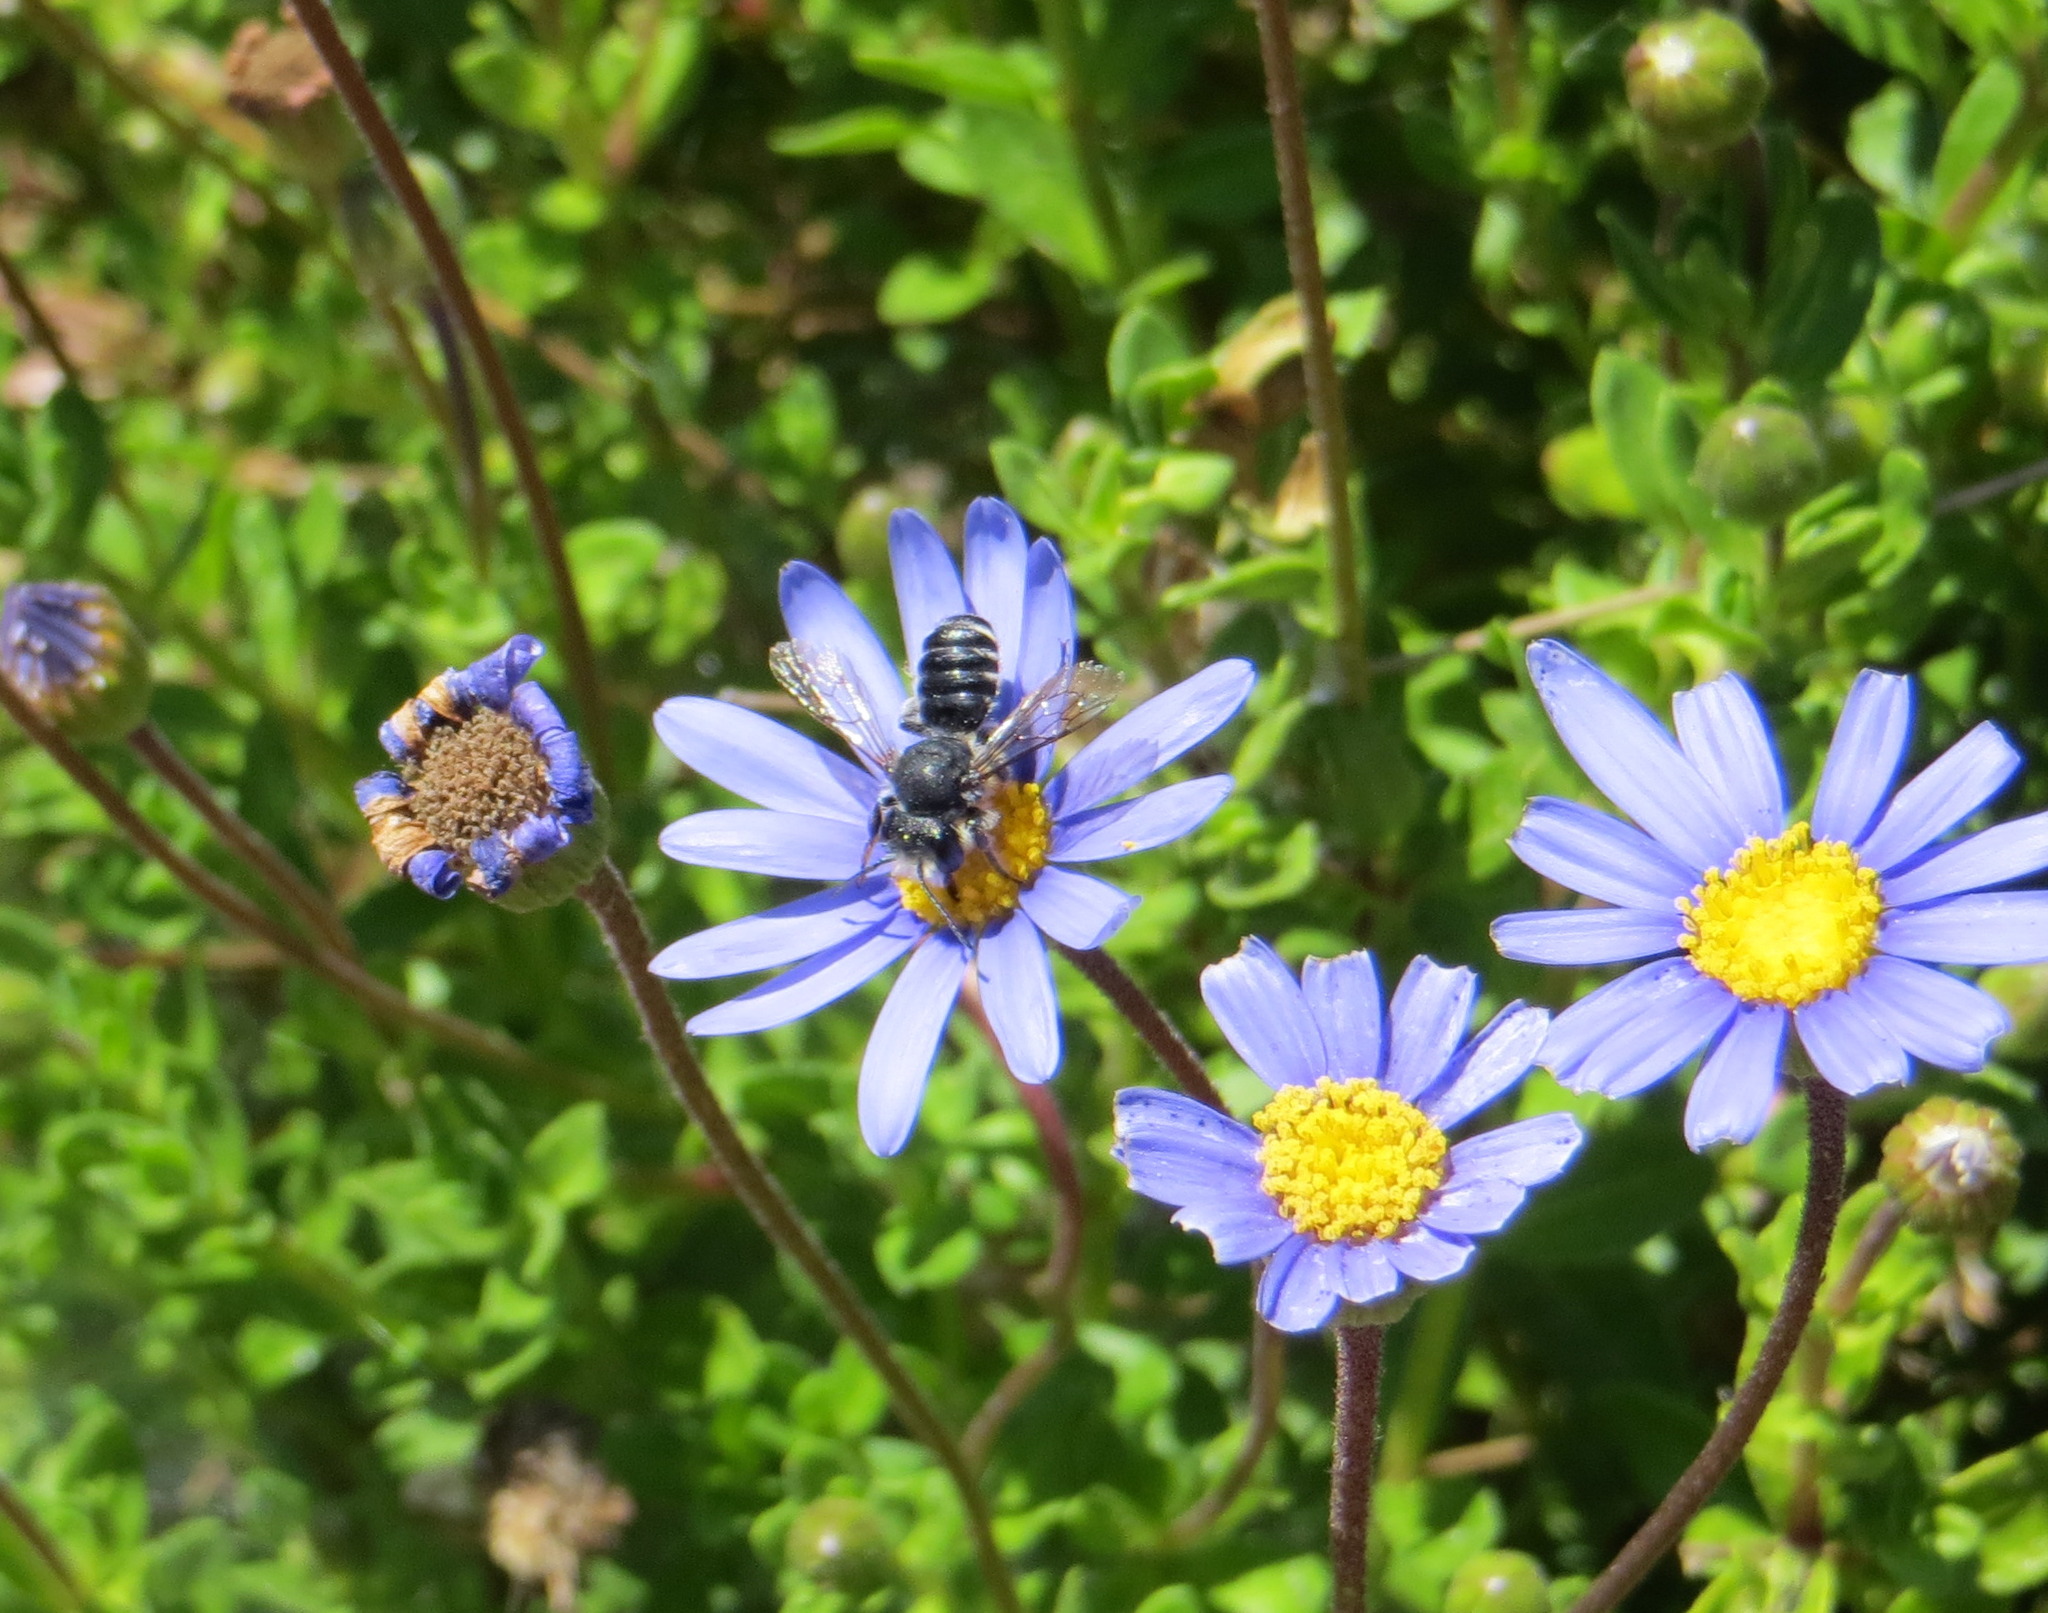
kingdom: Animalia
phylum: Arthropoda
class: Insecta
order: Hymenoptera
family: Megachilidae
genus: Megachile
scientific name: Megachile
